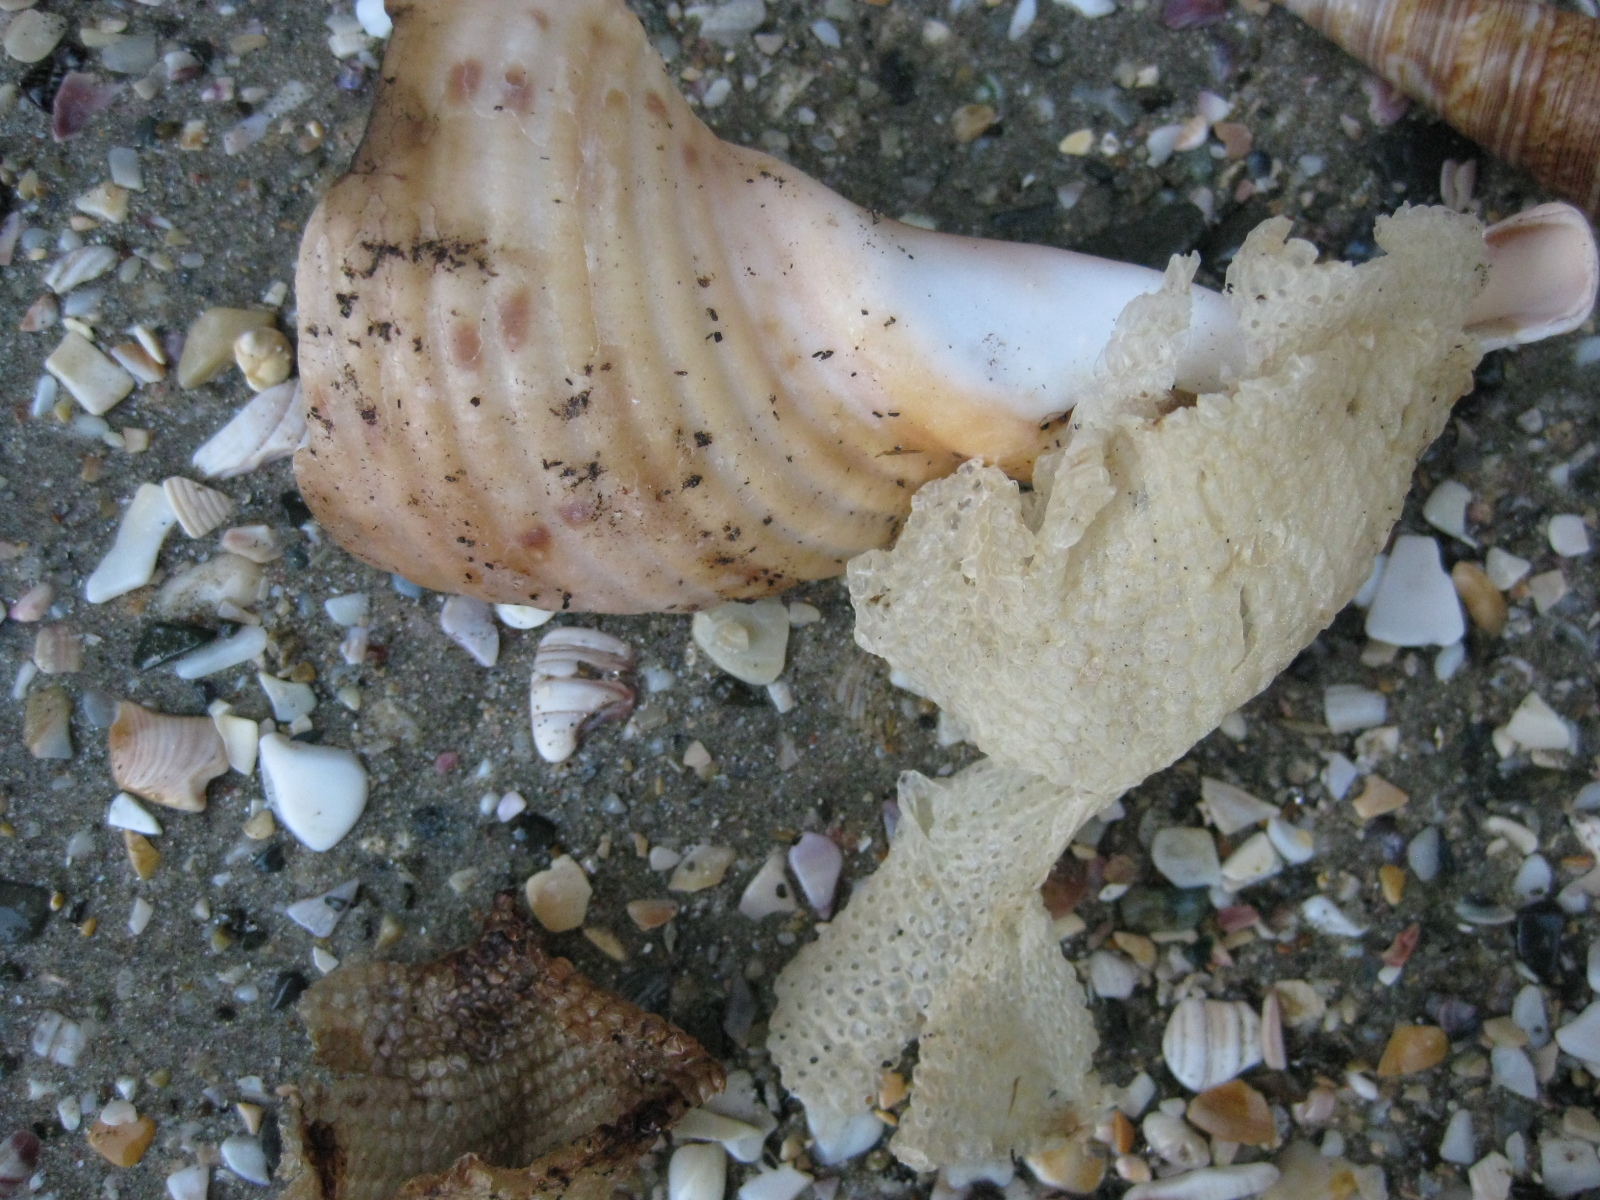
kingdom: Animalia
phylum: Mollusca
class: Gastropoda
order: Littorinimorpha
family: Tonnidae
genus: Tonna
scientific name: Tonna tankervillii
